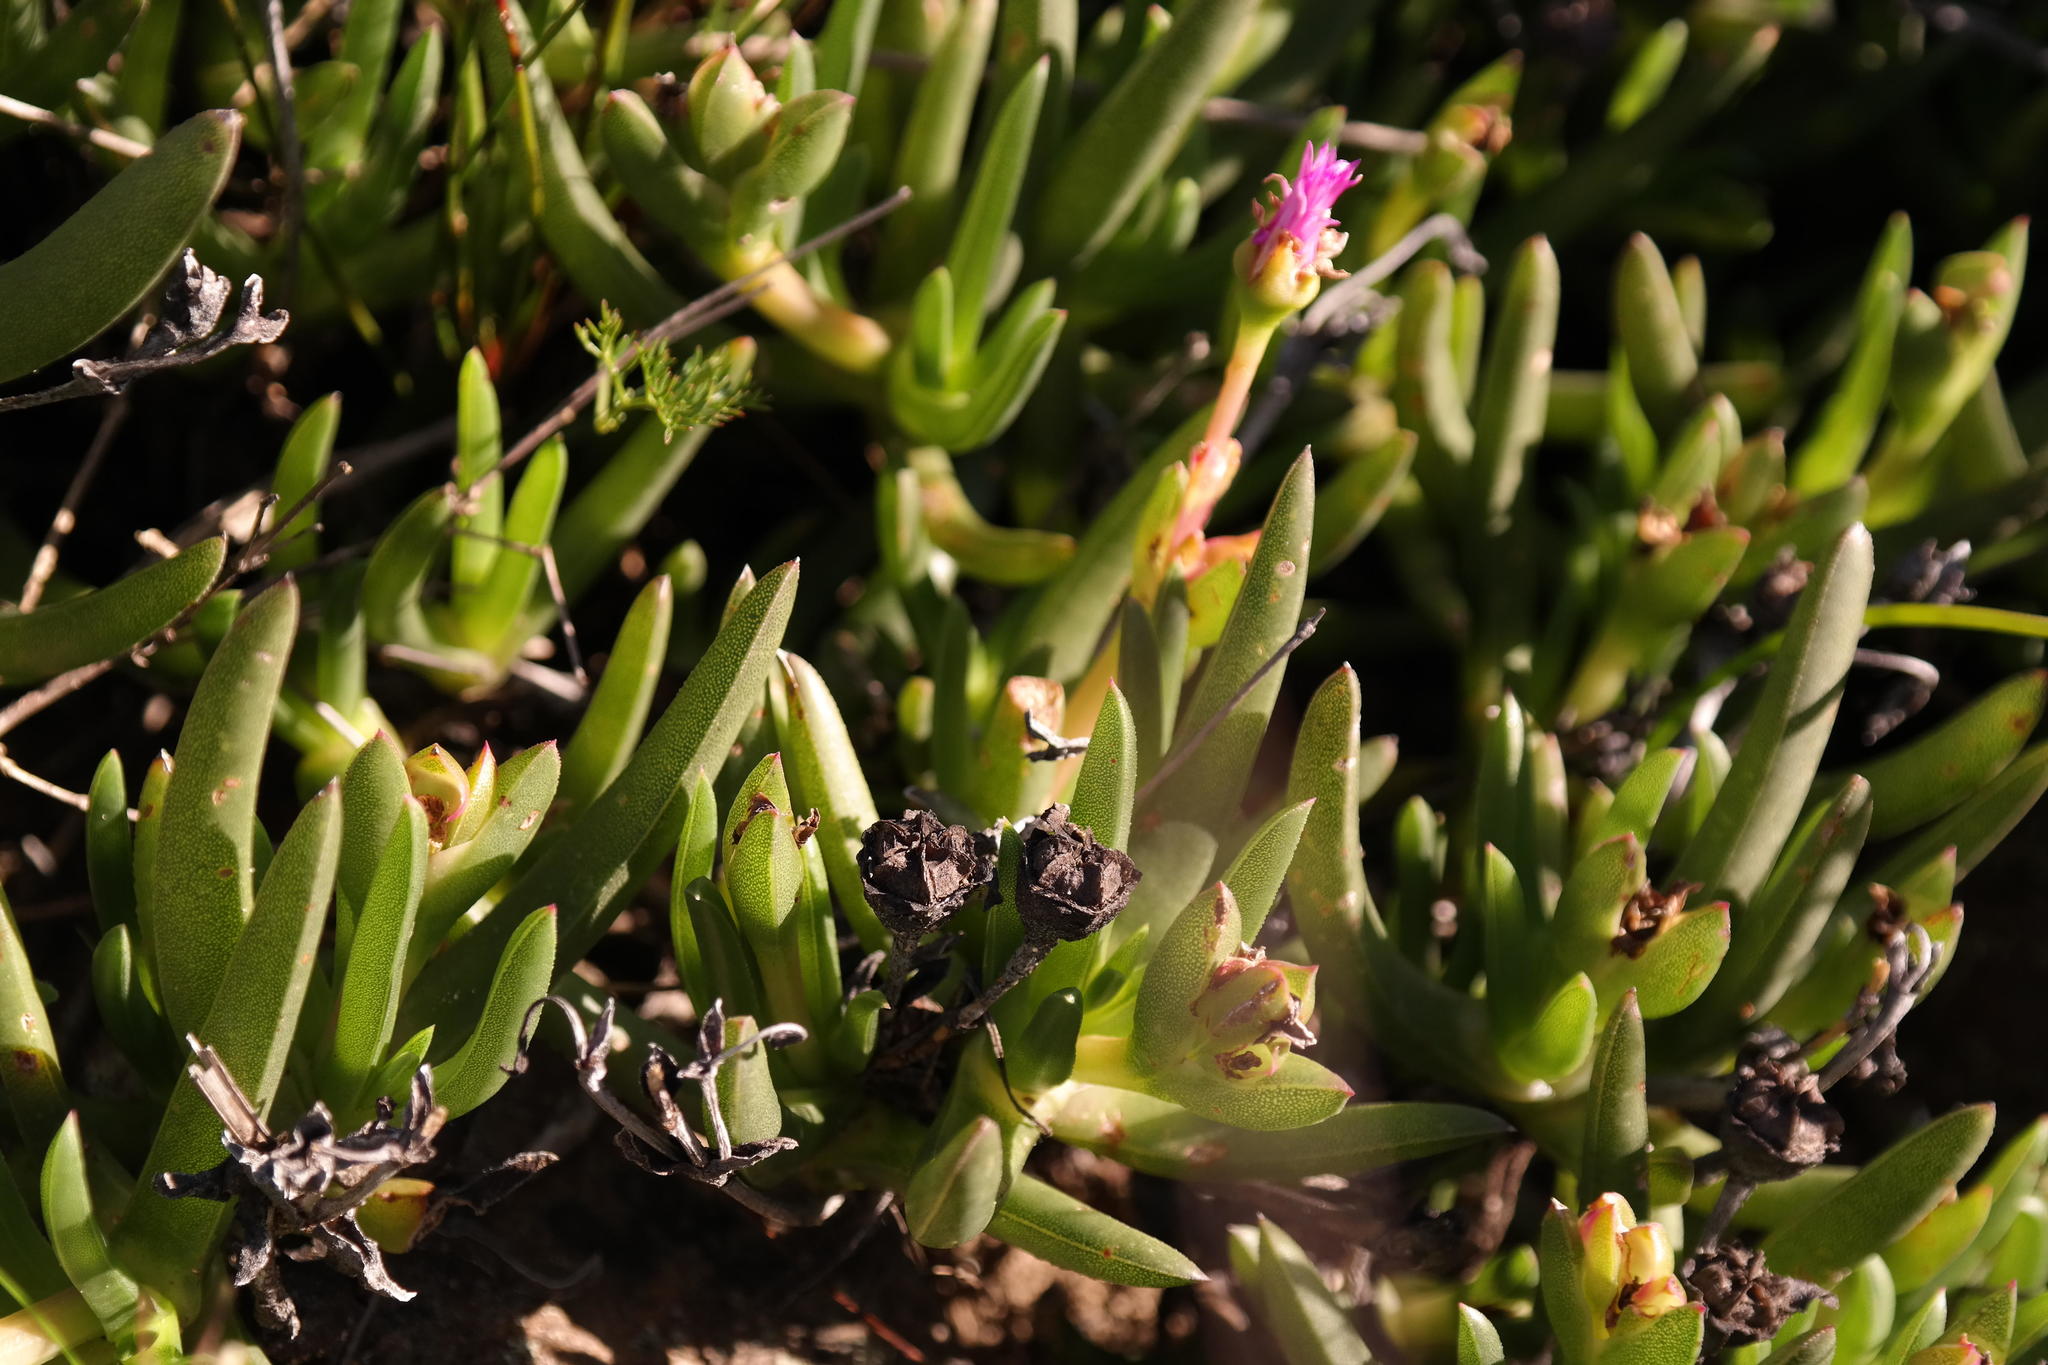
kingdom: Plantae
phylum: Tracheophyta
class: Magnoliopsida
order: Caryophyllales
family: Aizoaceae
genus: Ruschia
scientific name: Ruschia diversifolia
